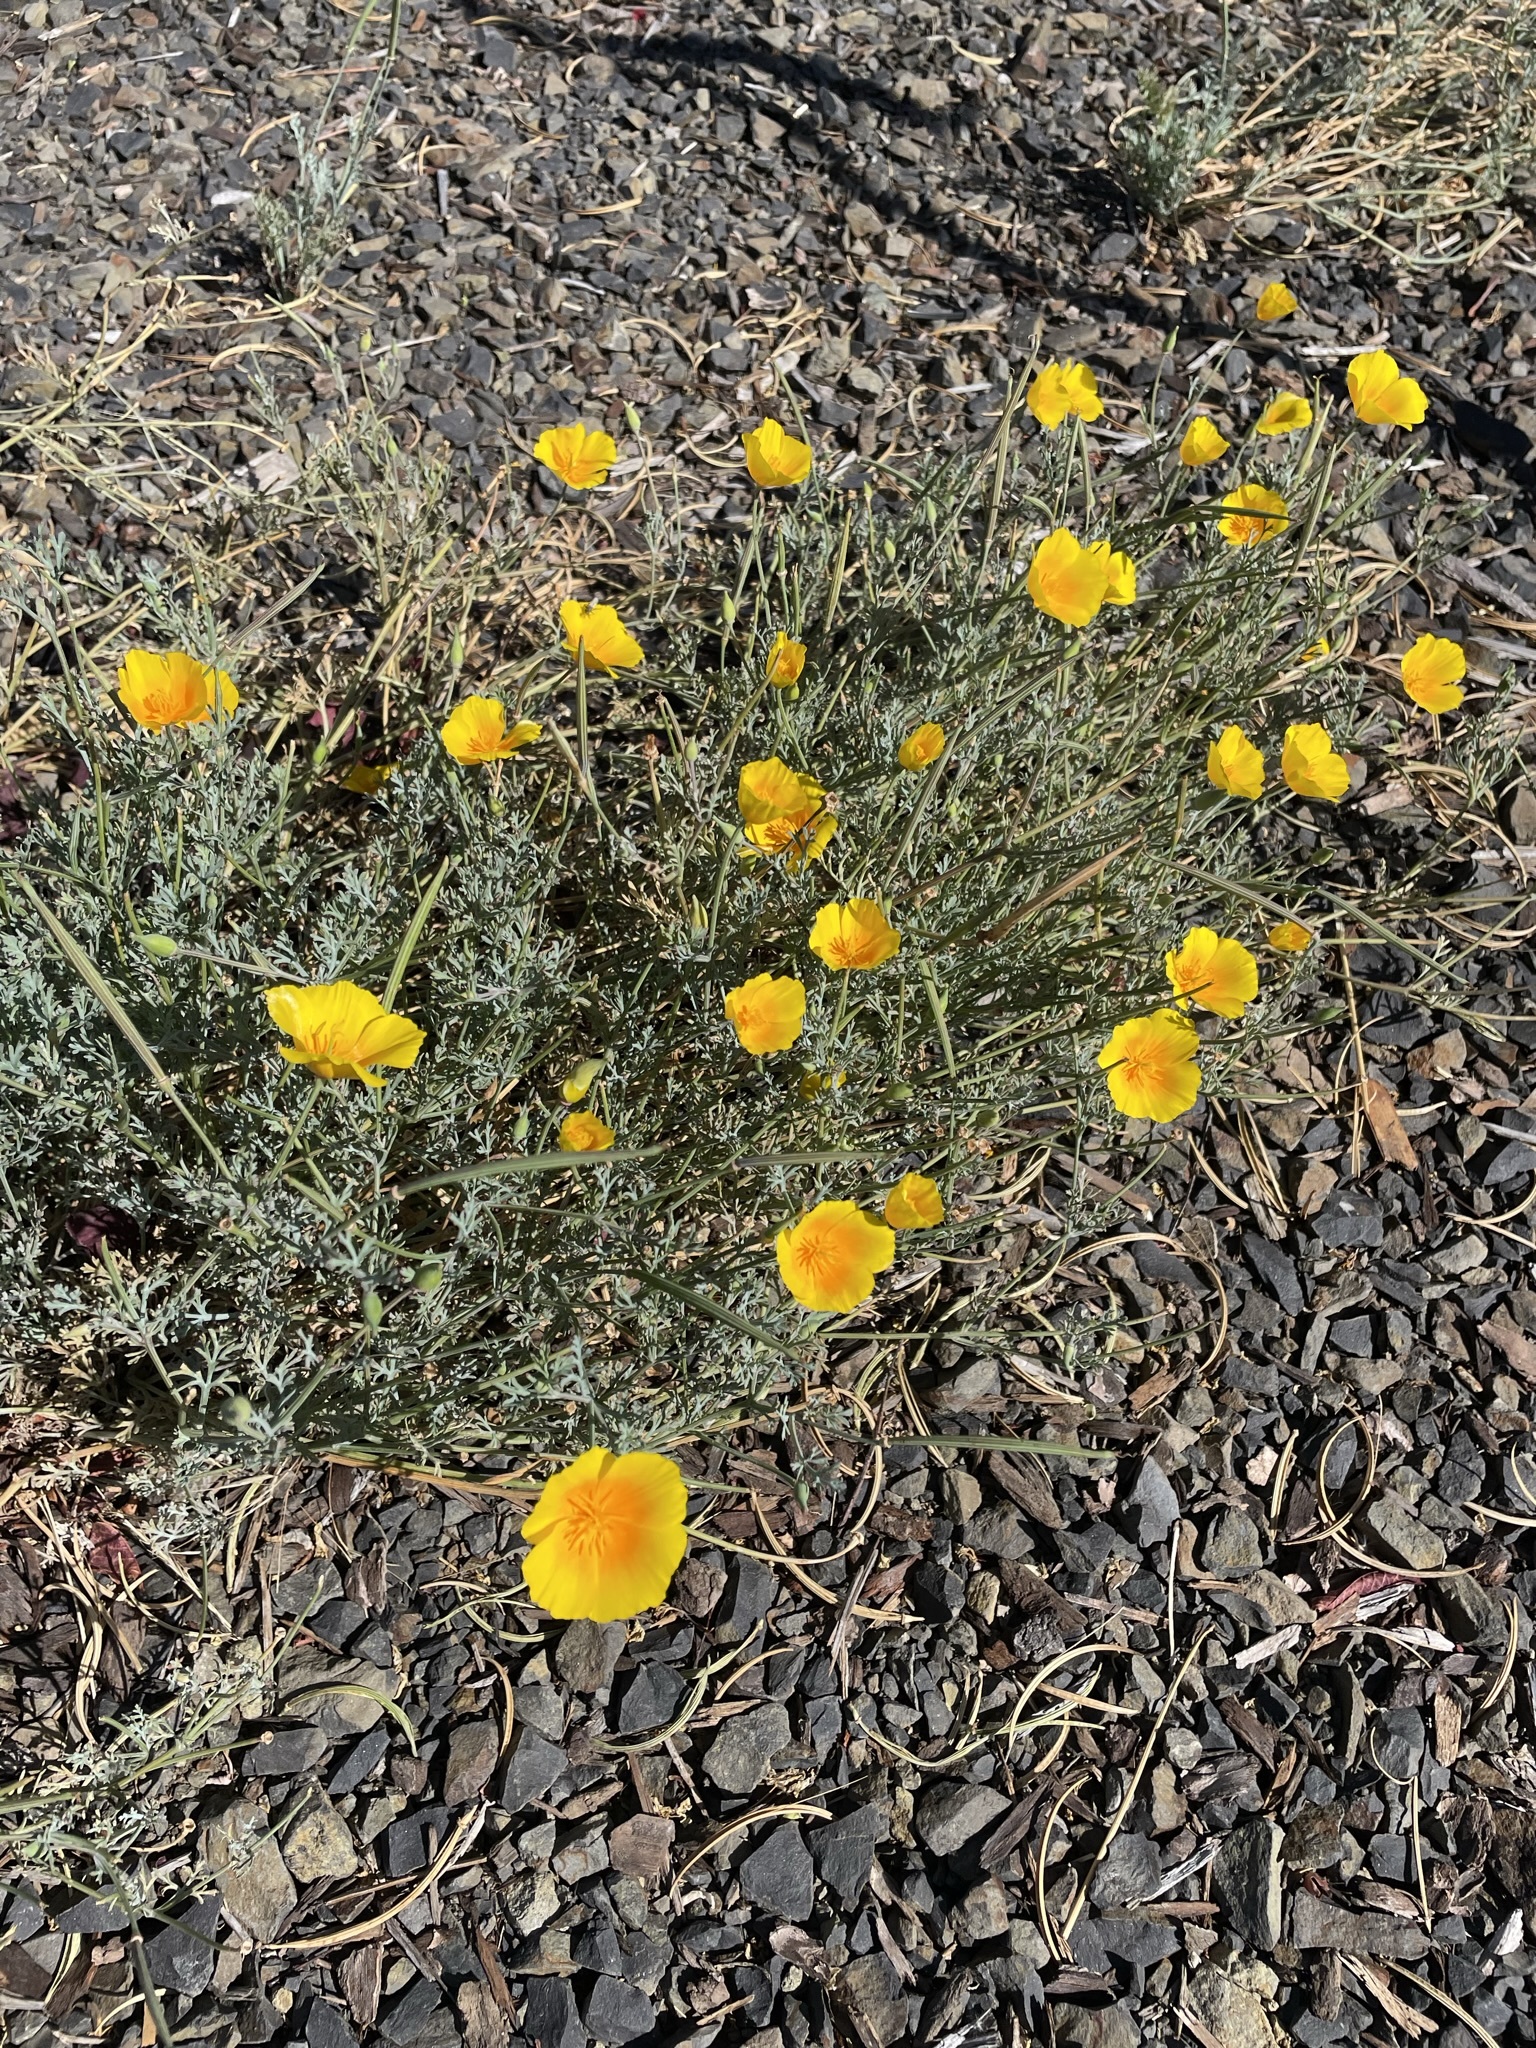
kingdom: Plantae
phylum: Tracheophyta
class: Magnoliopsida
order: Ranunculales
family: Papaveraceae
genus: Eschscholzia
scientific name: Eschscholzia californica
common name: California poppy
